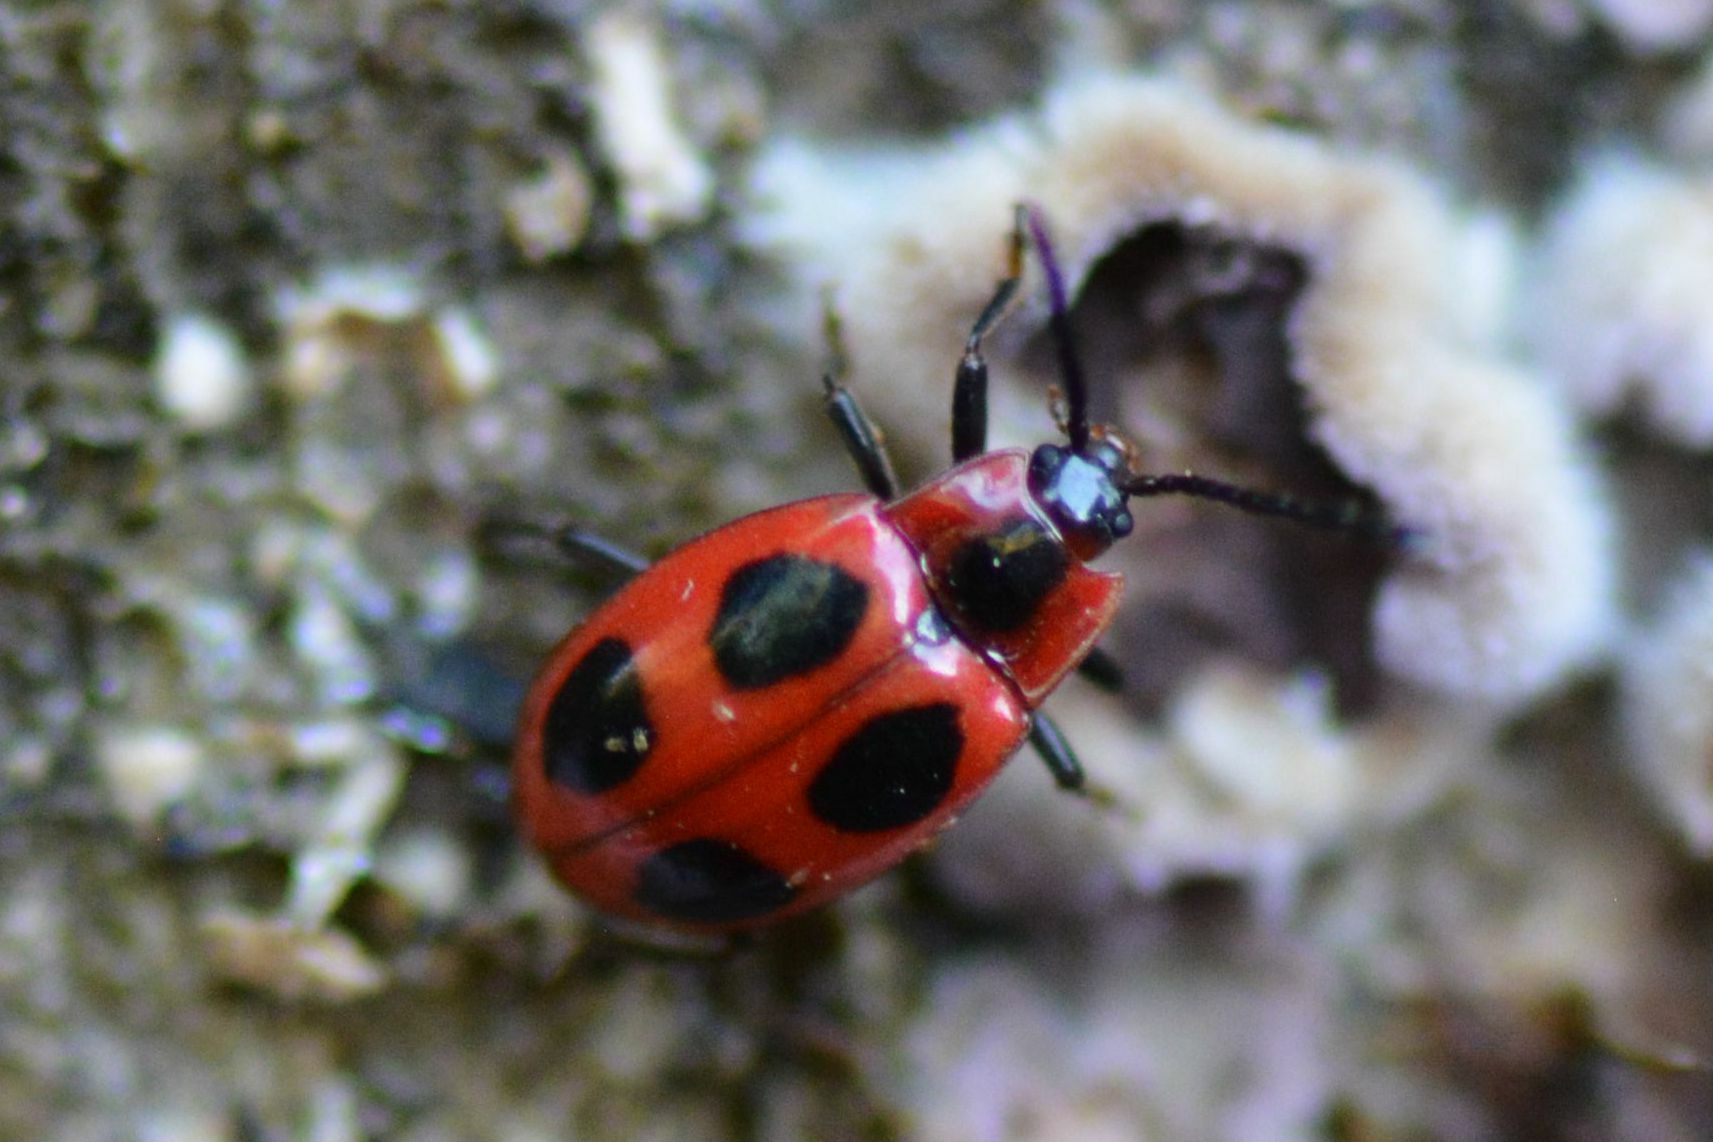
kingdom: Animalia
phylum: Arthropoda
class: Insecta
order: Coleoptera
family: Endomychidae
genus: Endomychus
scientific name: Endomychus coccineus
